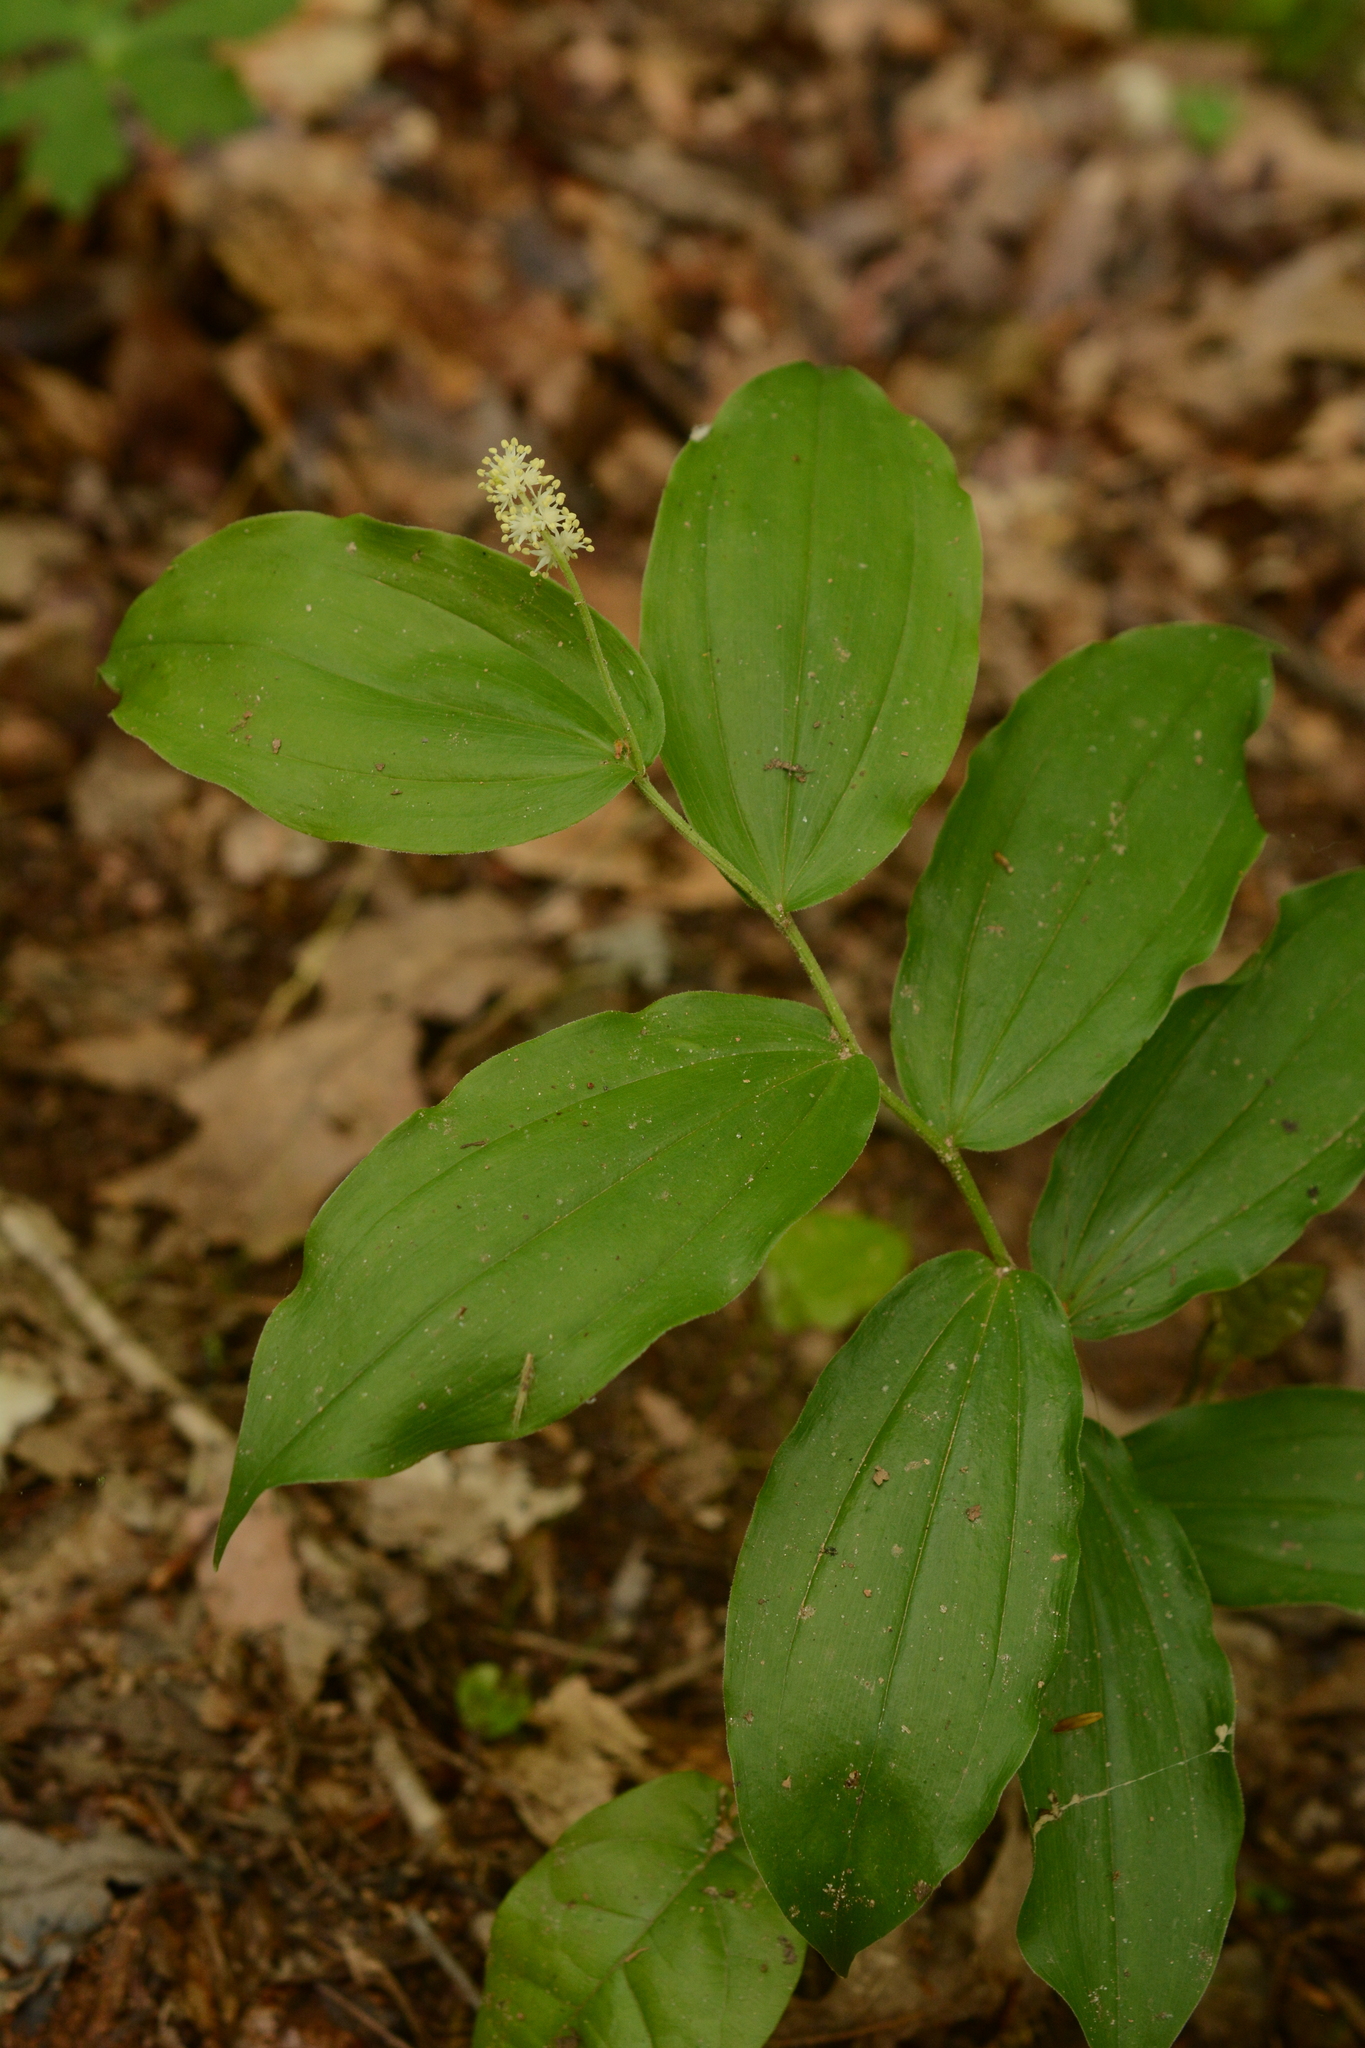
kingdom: Plantae
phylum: Tracheophyta
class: Liliopsida
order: Asparagales
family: Asparagaceae
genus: Maianthemum
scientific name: Maianthemum racemosum
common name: False spikenard
